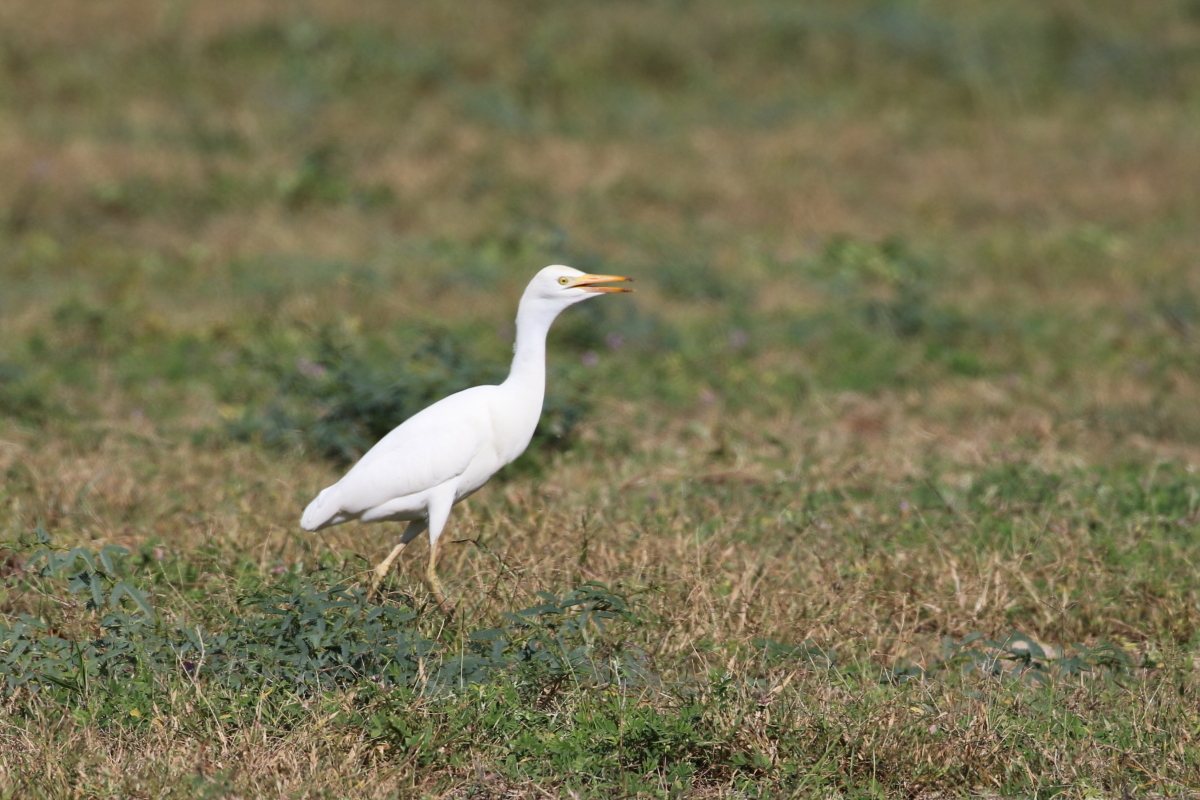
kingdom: Animalia
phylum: Chordata
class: Aves
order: Pelecaniformes
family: Ardeidae
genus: Bubulcus
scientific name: Bubulcus ibis
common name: Cattle egret
